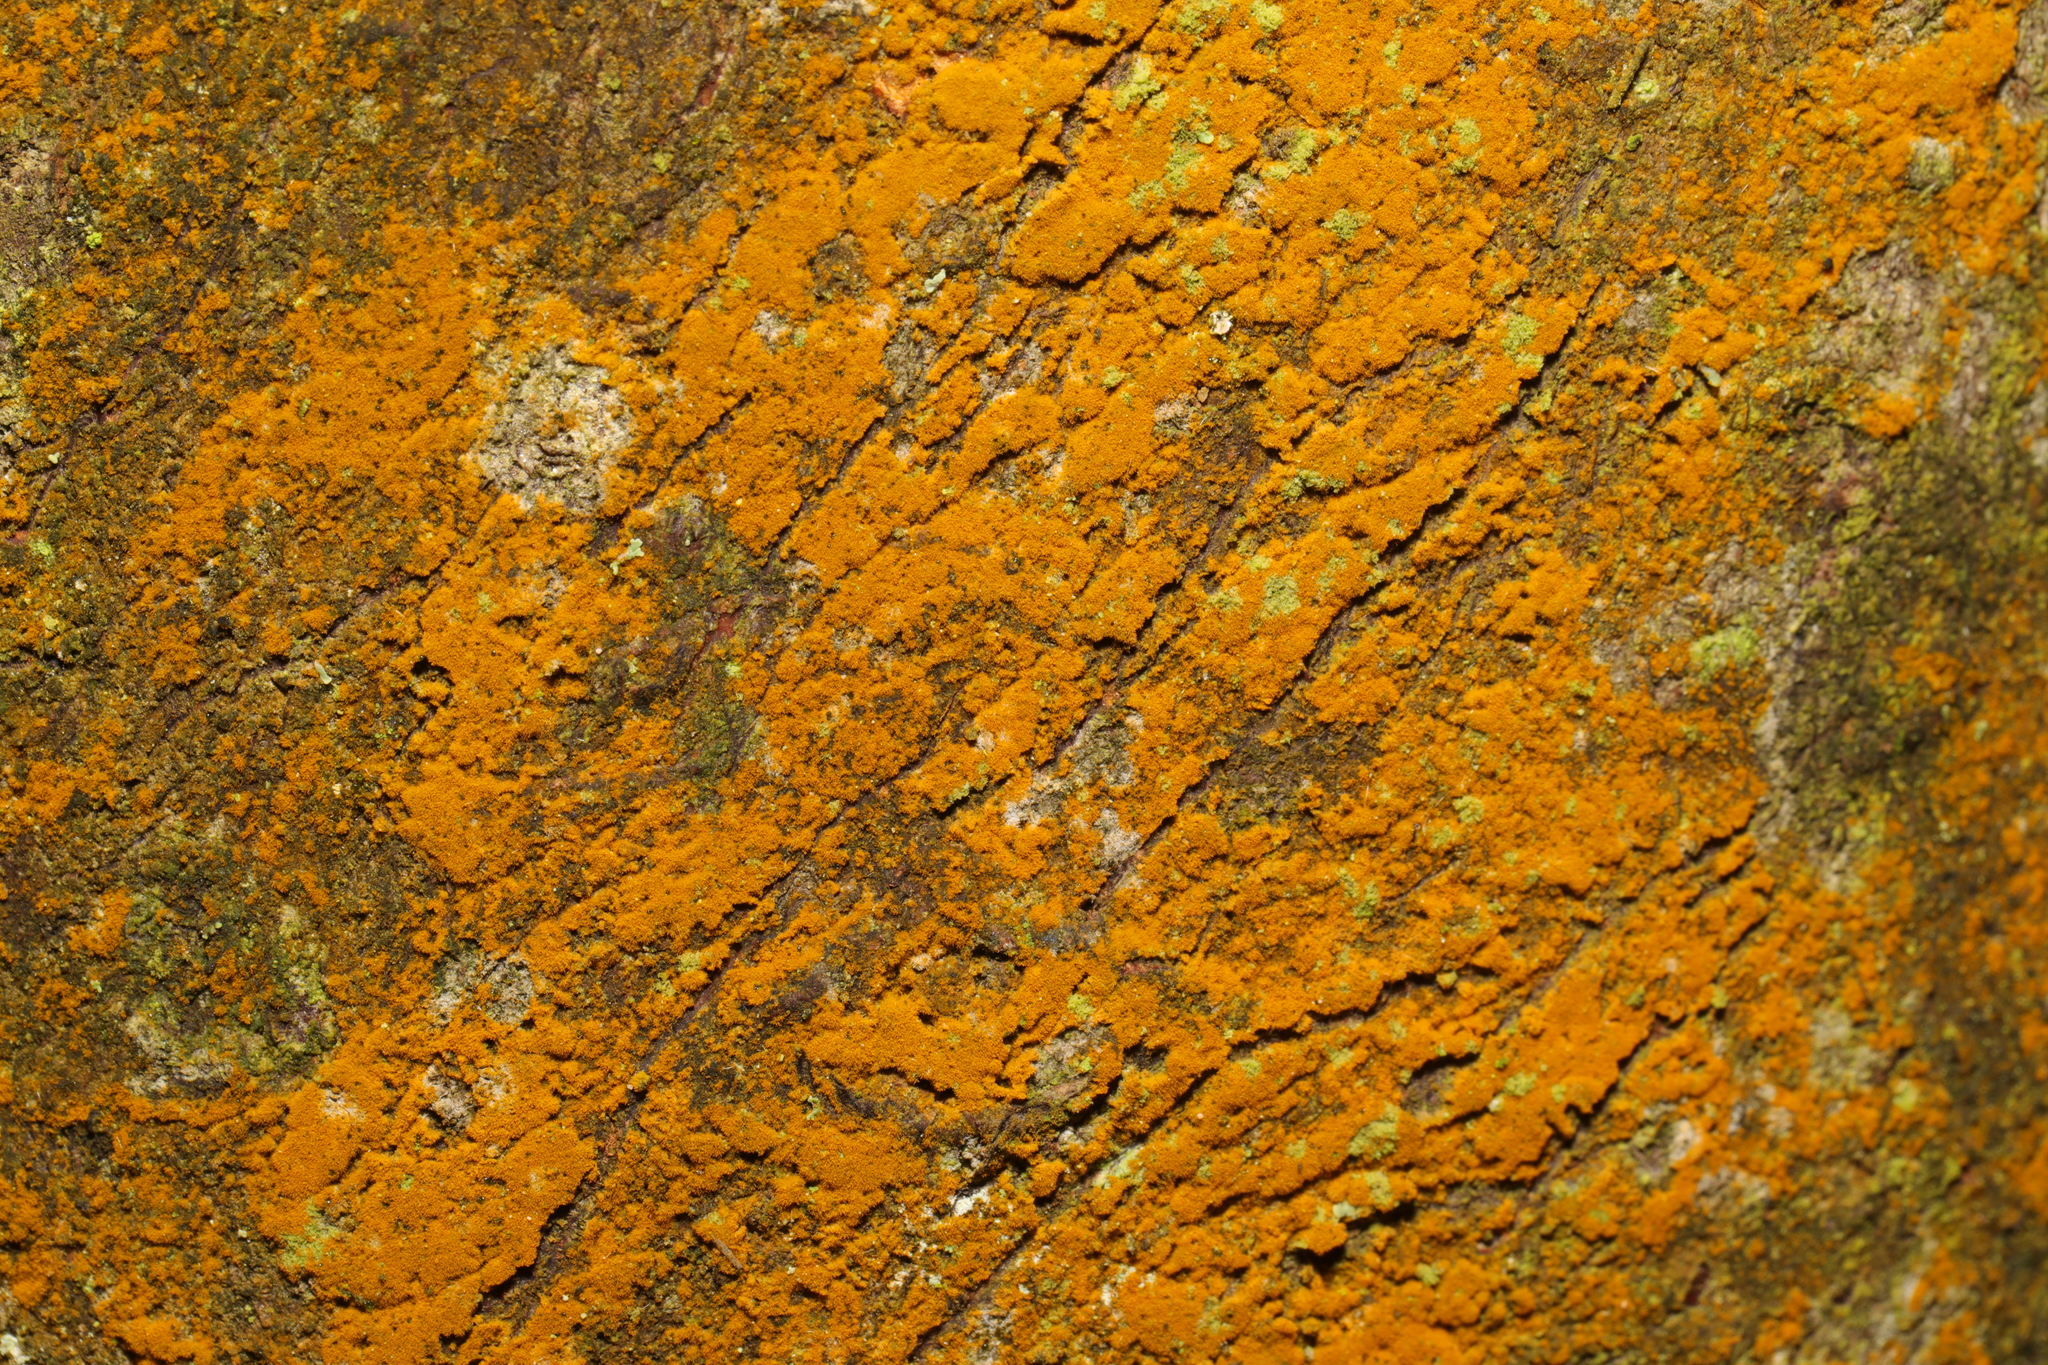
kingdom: Plantae
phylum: Chlorophyta
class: Ulvophyceae
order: Trentepohliales
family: Trentepohliaceae
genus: Trentepohlia
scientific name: Trentepohlia
